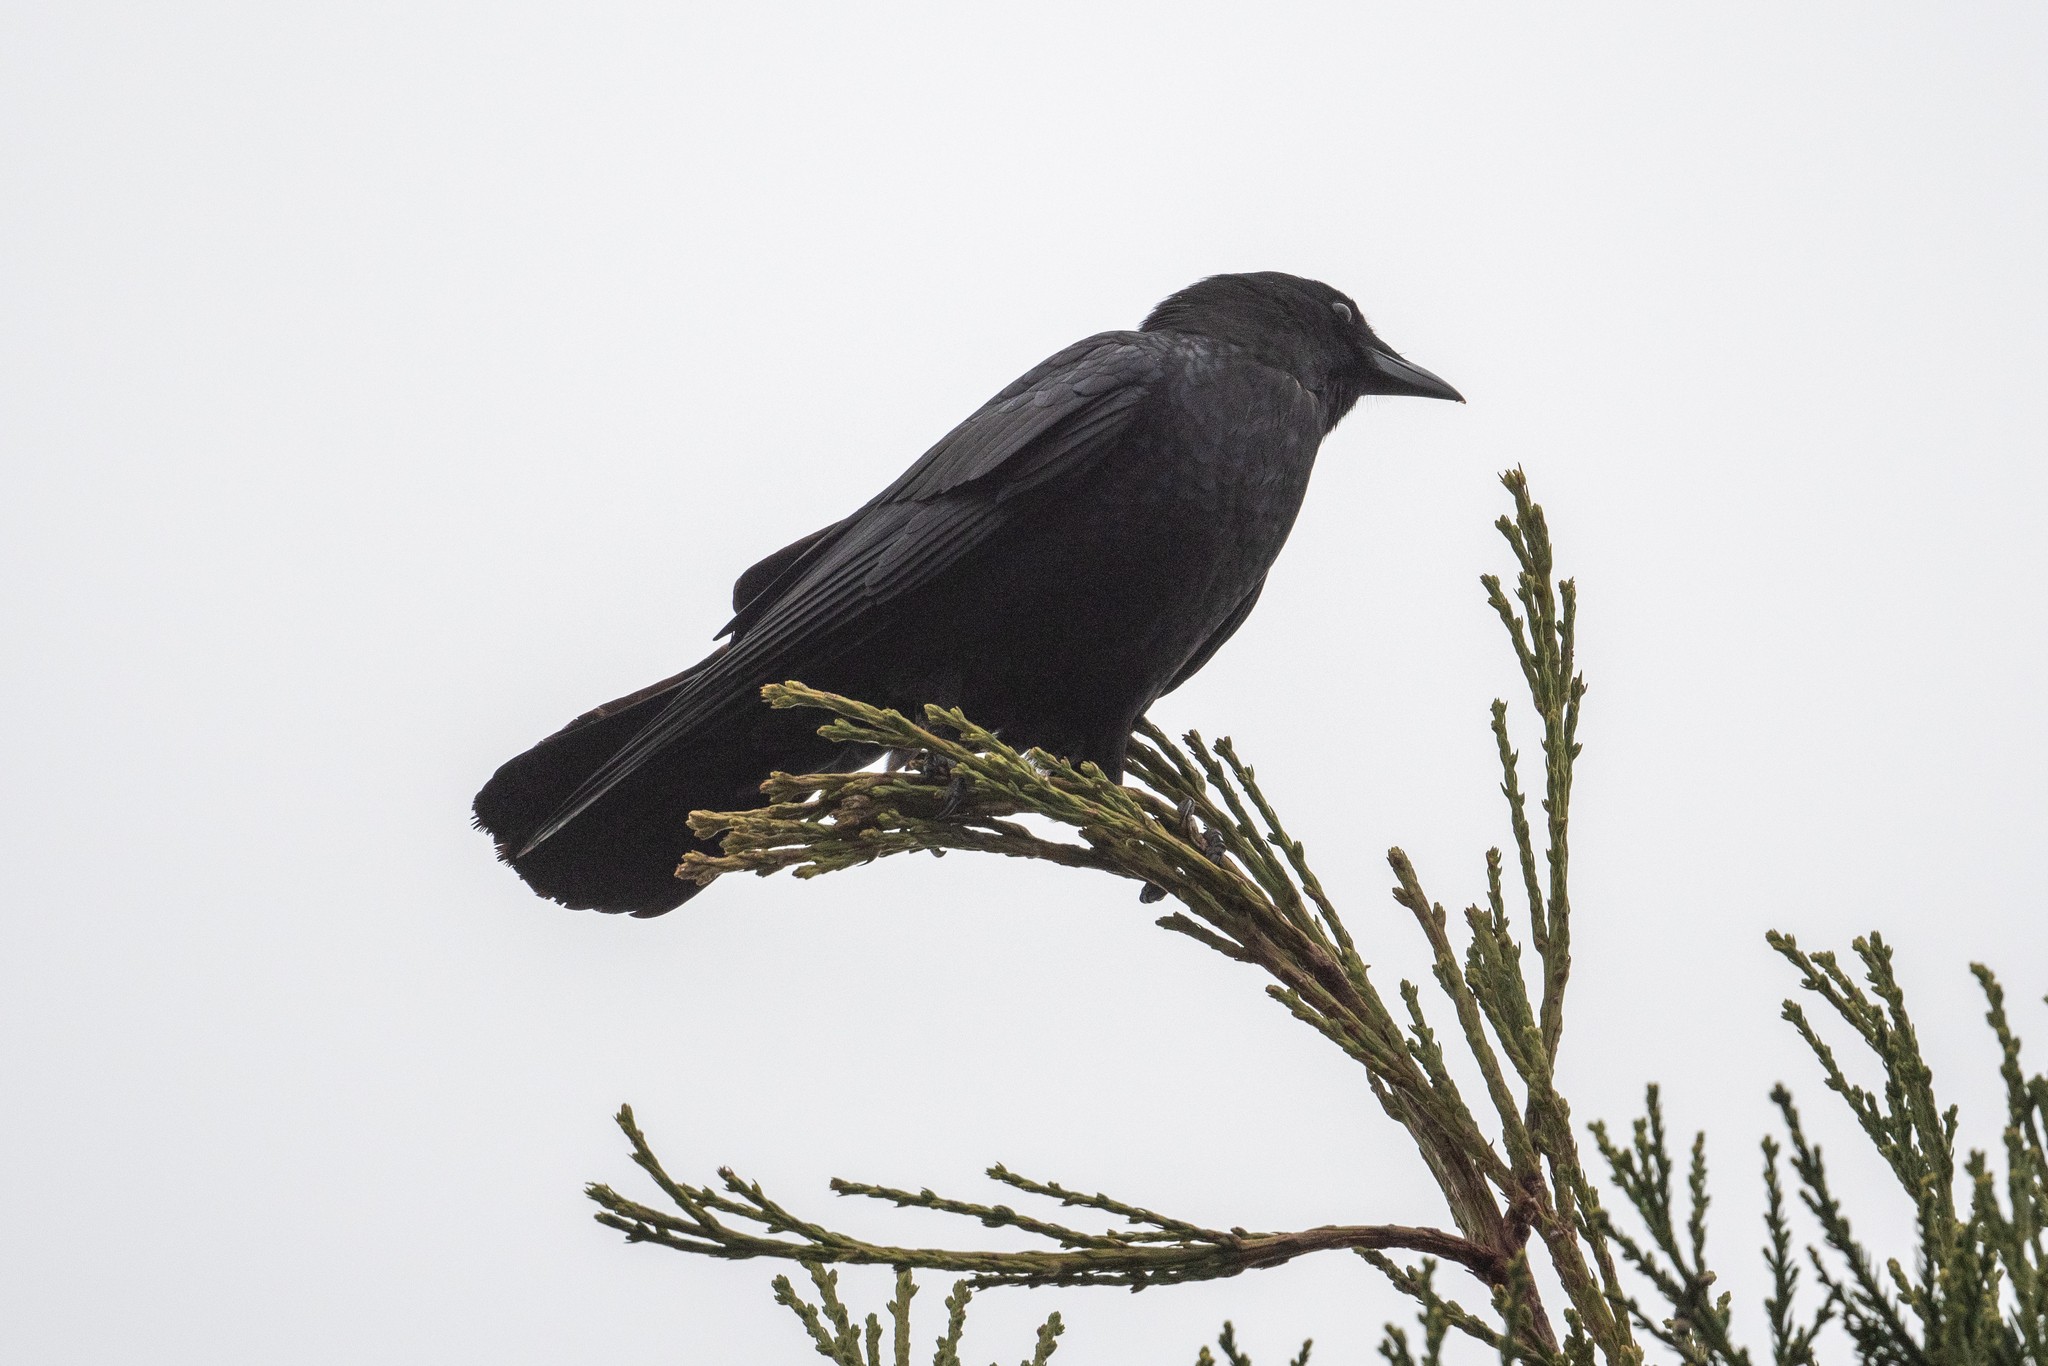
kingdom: Animalia
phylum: Chordata
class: Aves
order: Passeriformes
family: Corvidae
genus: Corvus
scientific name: Corvus brachyrhynchos
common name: American crow
